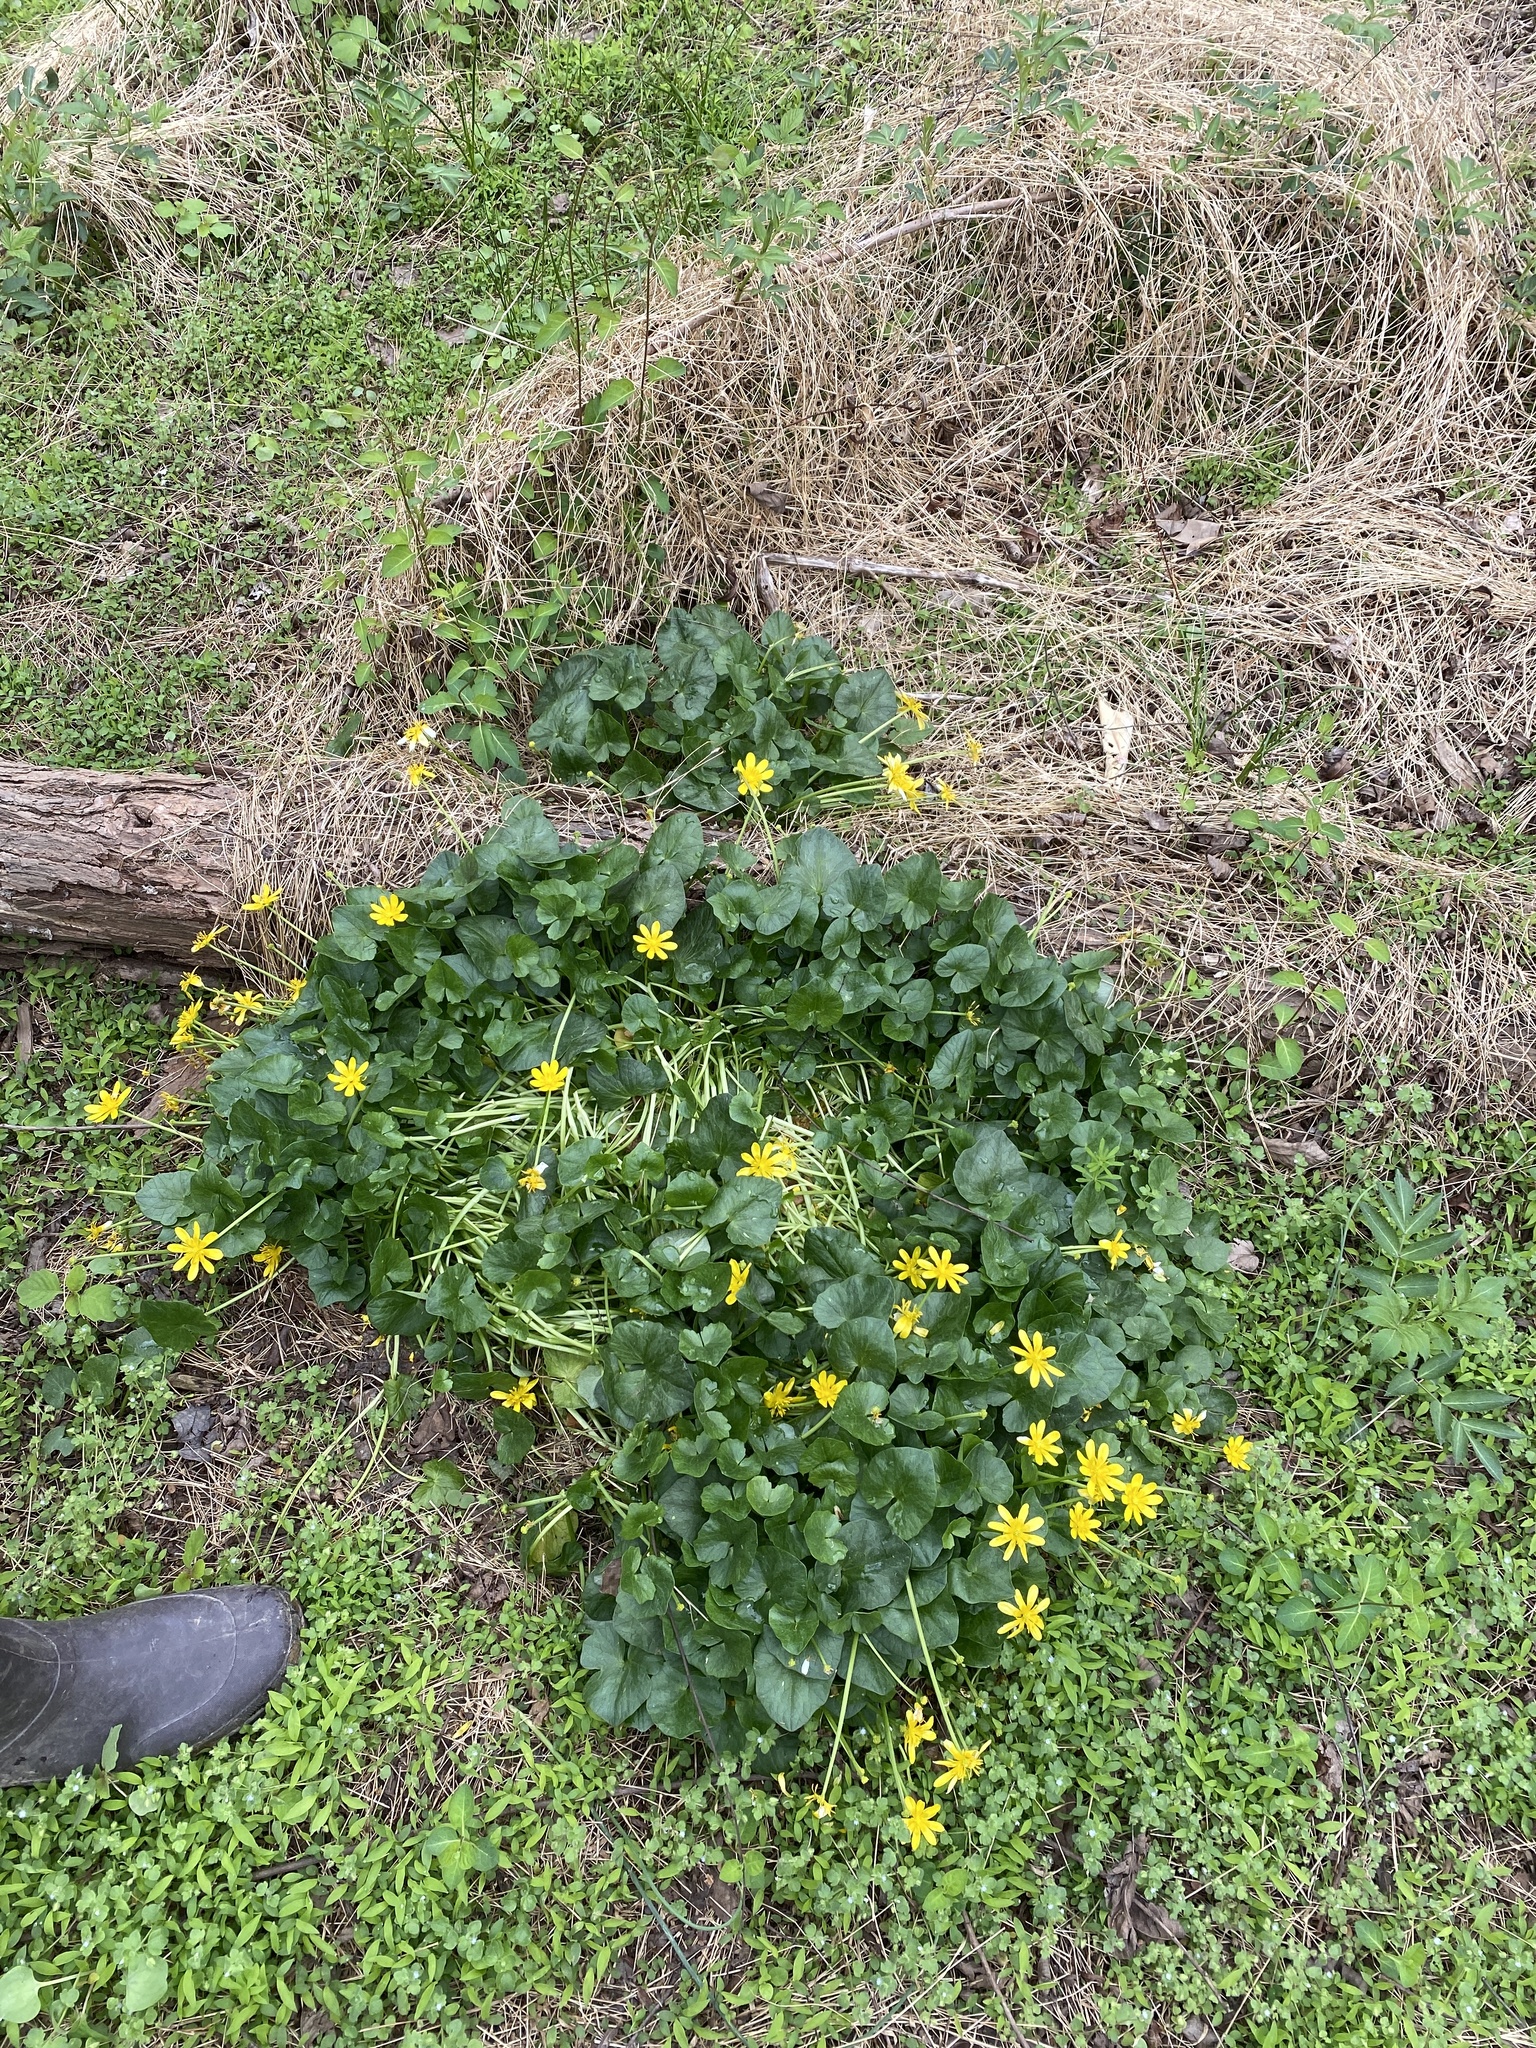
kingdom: Plantae
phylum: Tracheophyta
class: Magnoliopsida
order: Ranunculales
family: Ranunculaceae
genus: Ficaria
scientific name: Ficaria verna
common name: Lesser celandine
